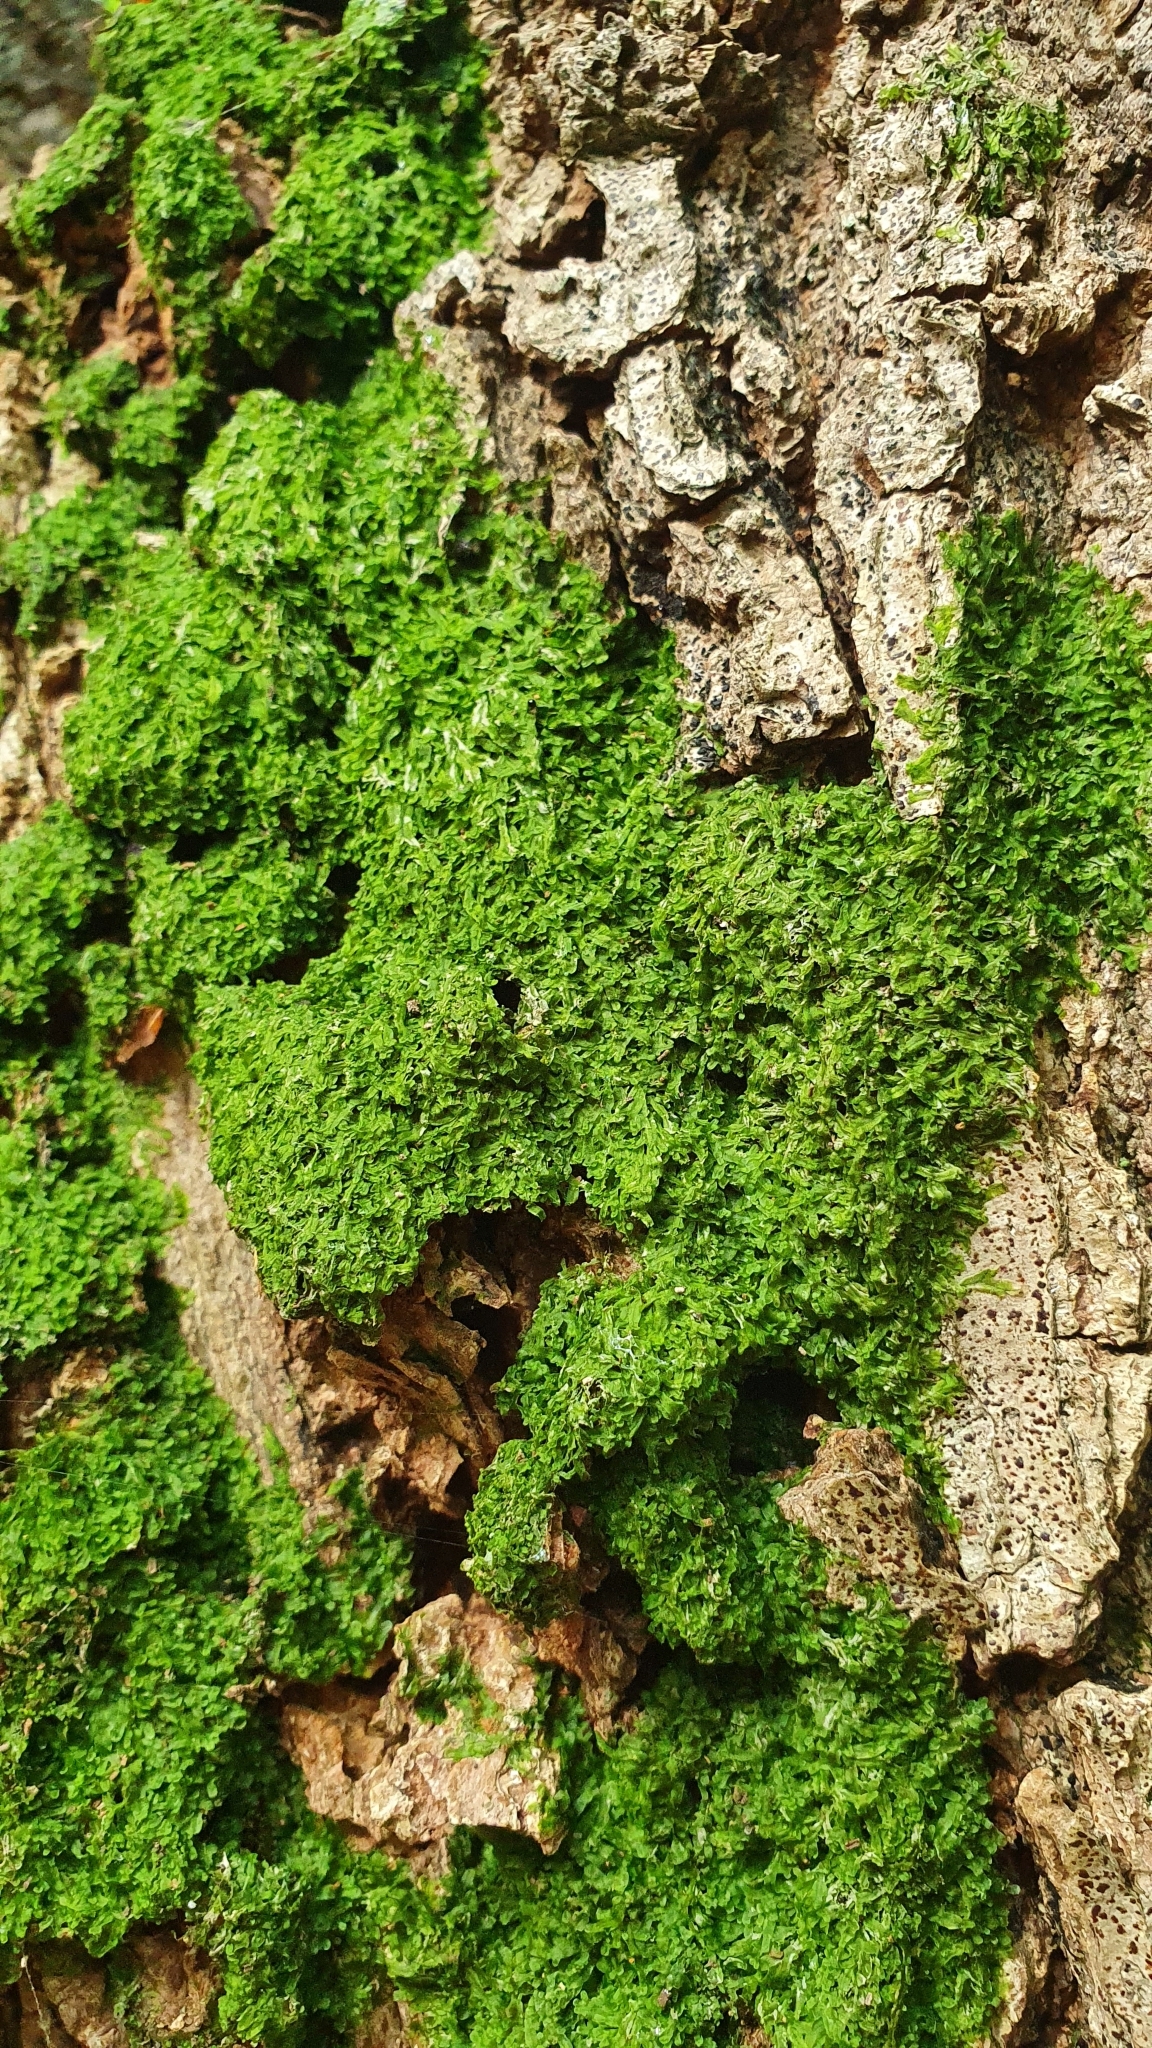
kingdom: Plantae
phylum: Marchantiophyta
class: Jungermanniopsida
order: Metzgeriales
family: Metzgeriaceae
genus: Metzgeria
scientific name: Metzgeria furcata
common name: Forked veilwort
